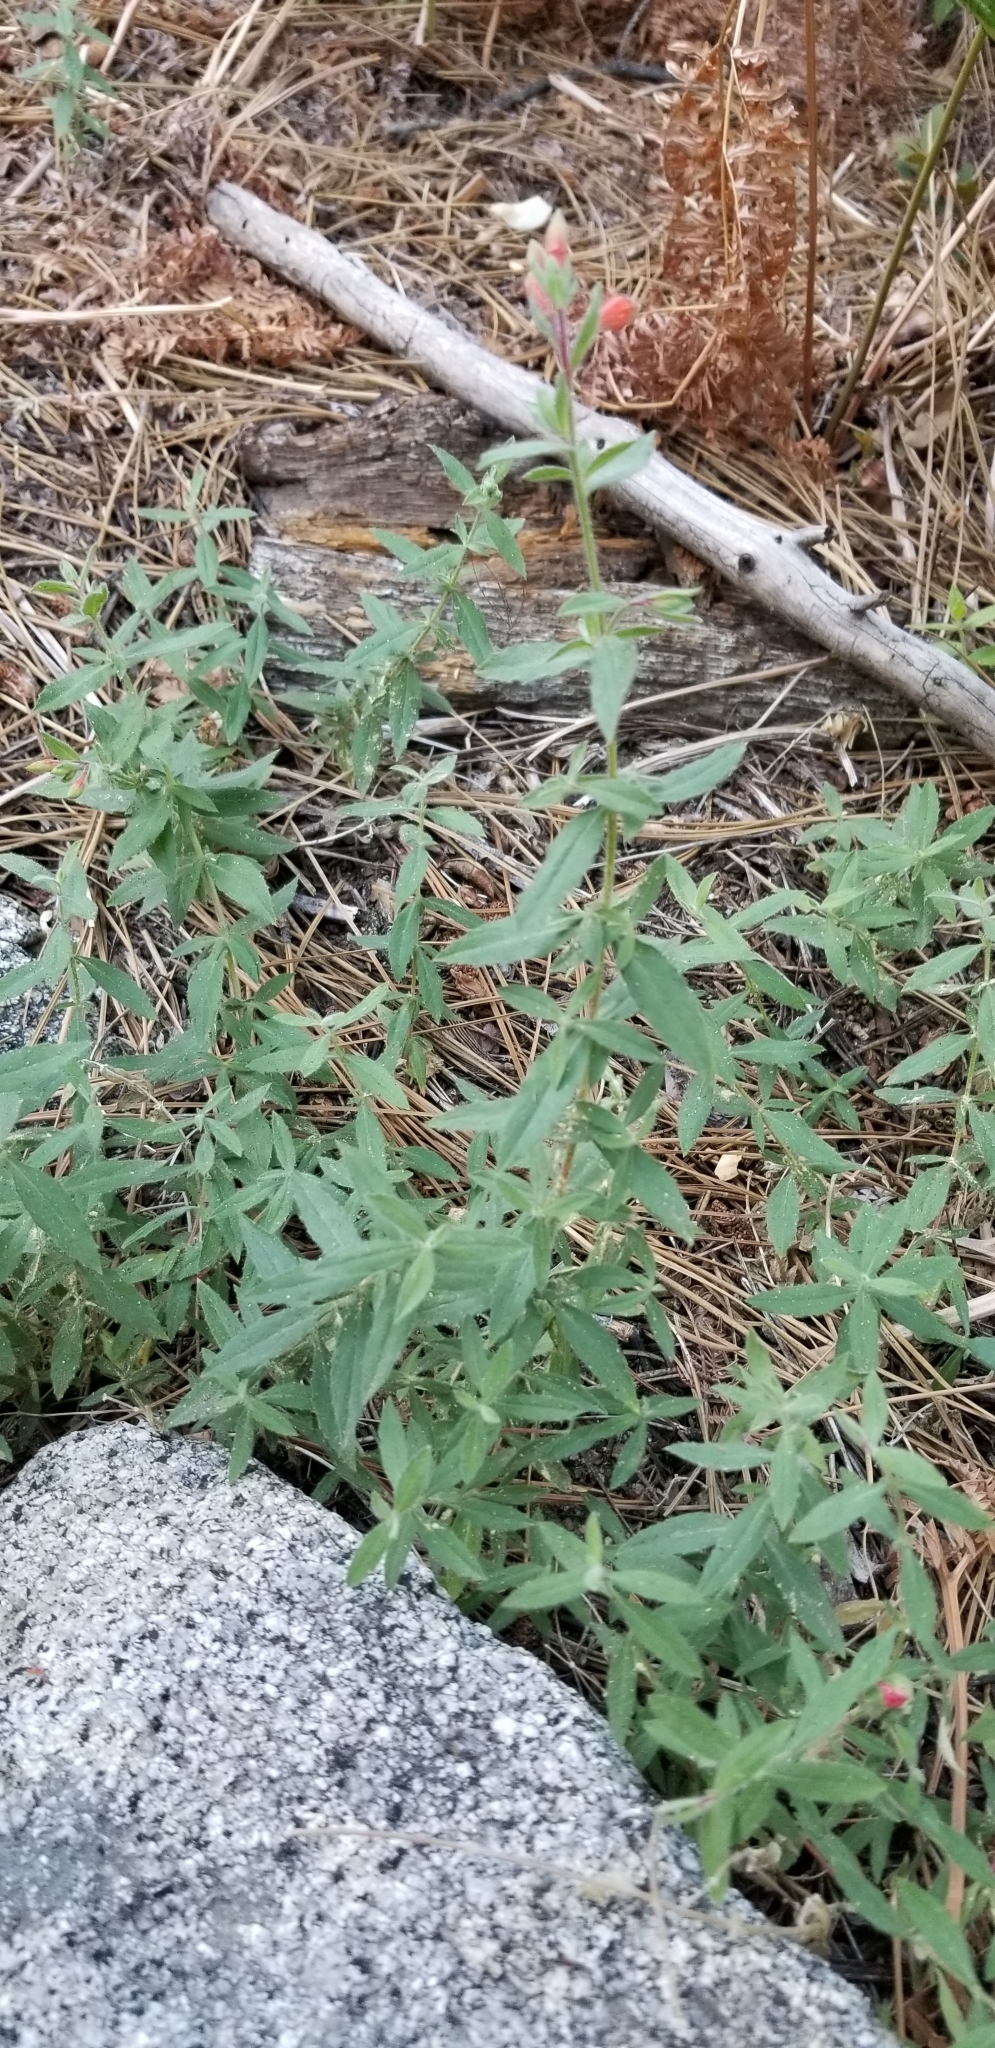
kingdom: Plantae
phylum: Tracheophyta
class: Magnoliopsida
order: Myrtales
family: Onagraceae
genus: Epilobium
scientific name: Epilobium canum
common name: California-fuchsia
